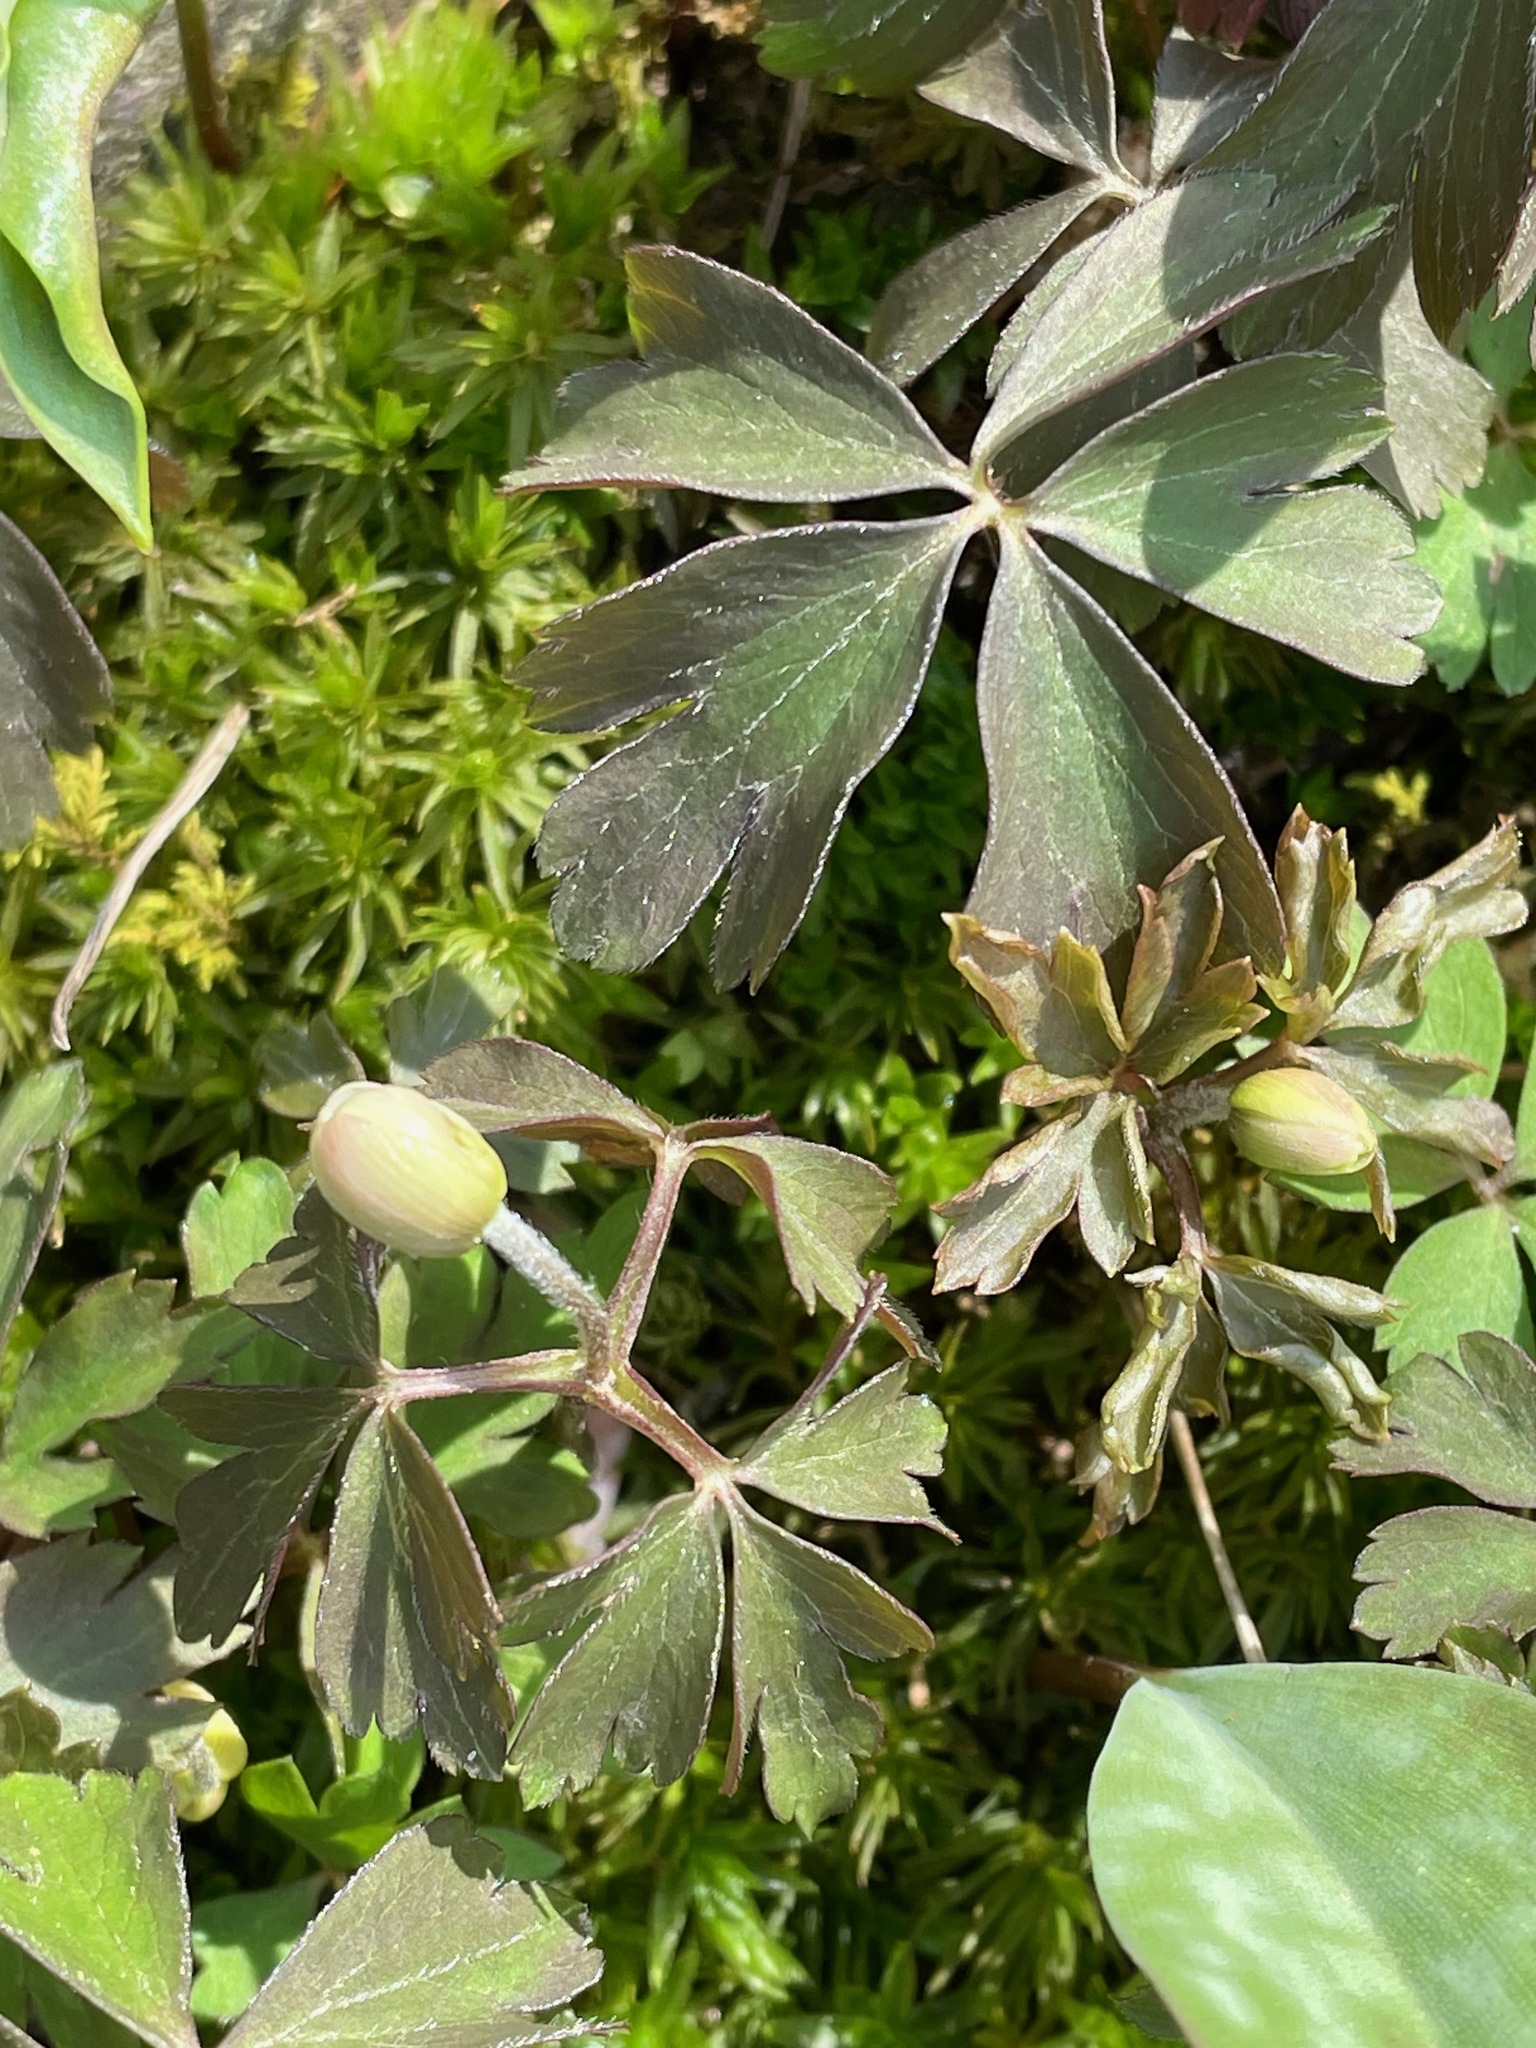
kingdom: Plantae
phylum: Tracheophyta
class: Magnoliopsida
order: Ranunculales
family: Ranunculaceae
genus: Anemone
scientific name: Anemone quinquefolia
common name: Wood anemone
